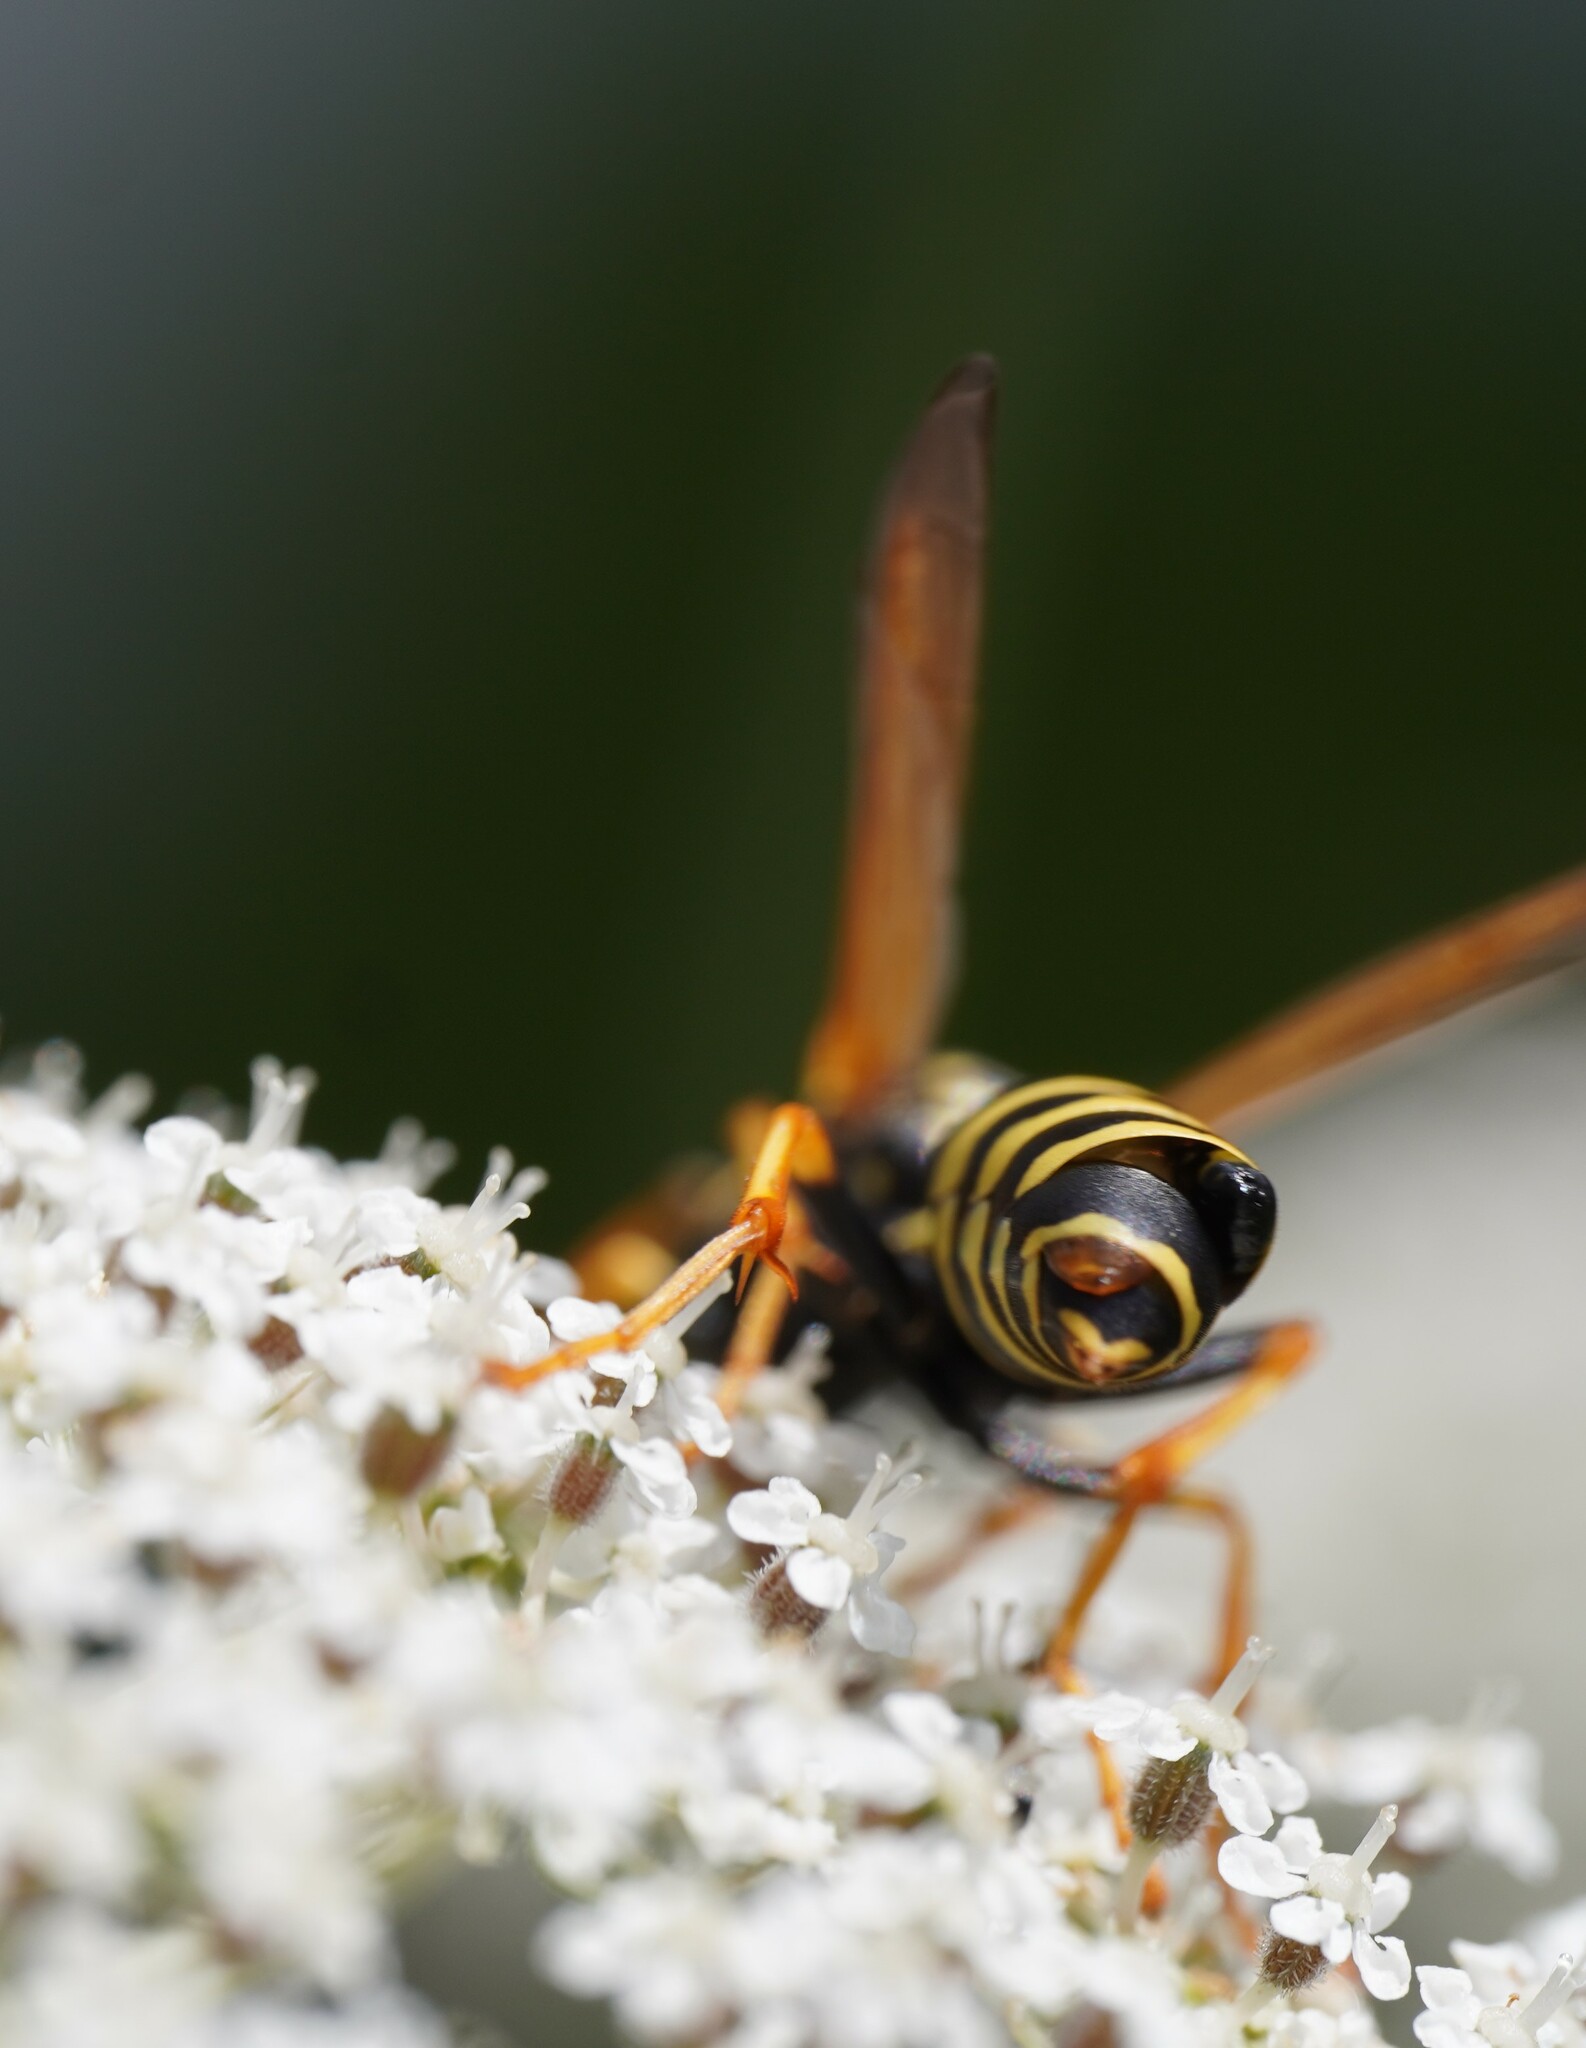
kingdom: Animalia
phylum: Arthropoda
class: Insecta
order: Strepsiptera
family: Xenidae
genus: Xenos
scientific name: Xenos vesparum
